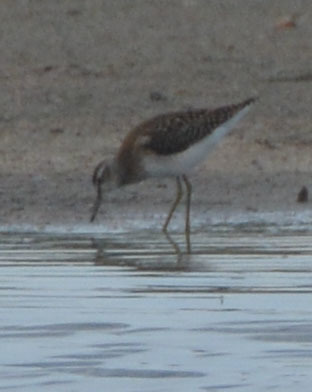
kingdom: Animalia
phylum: Chordata
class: Aves
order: Charadriiformes
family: Scolopacidae
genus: Tringa
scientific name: Tringa glareola
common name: Wood sandpiper
